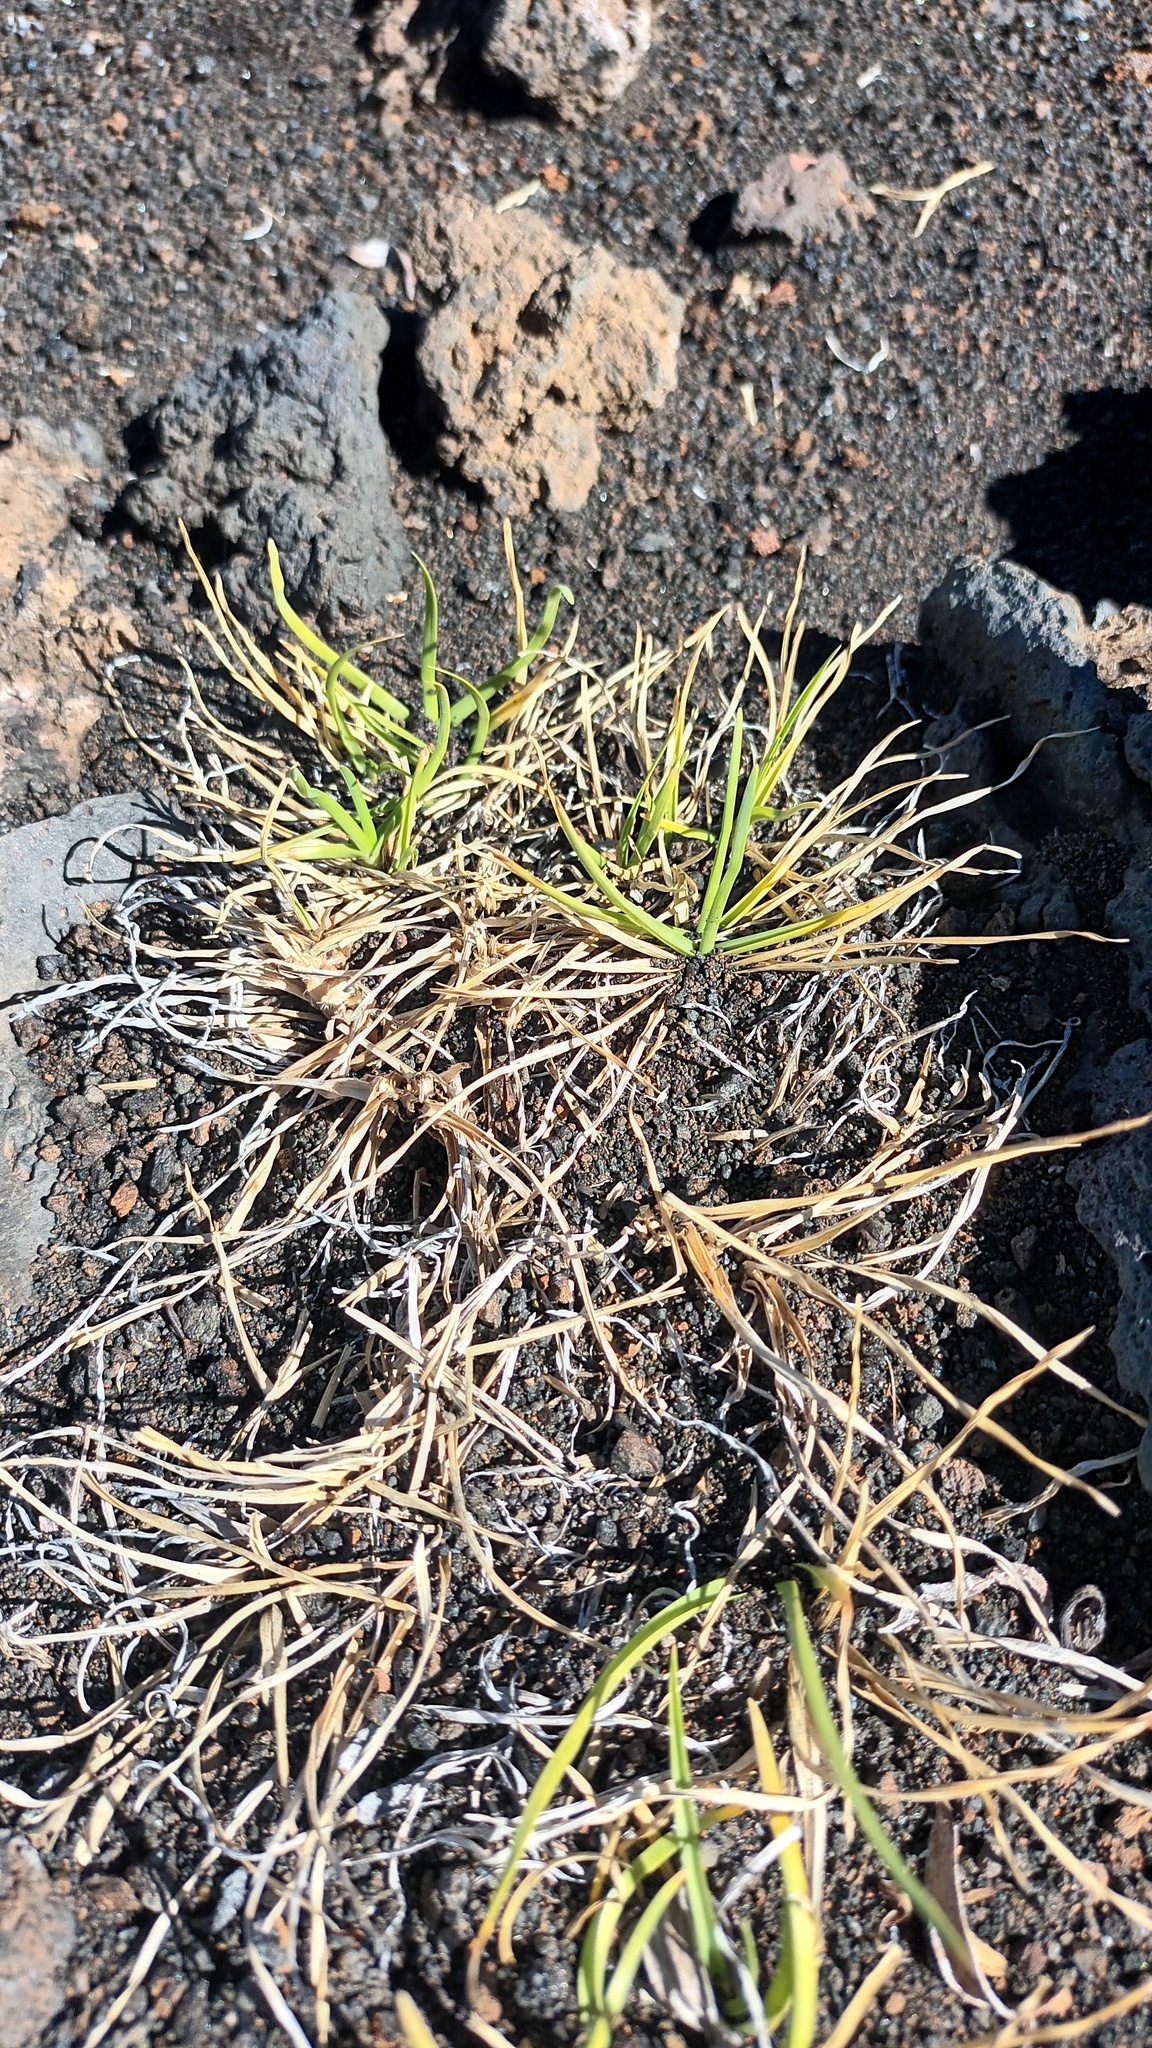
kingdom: Plantae
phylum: Tracheophyta
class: Liliopsida
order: Poales
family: Poaceae
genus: Cenchrus
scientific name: Cenchrus clandestinus
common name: Kikuyugrass
